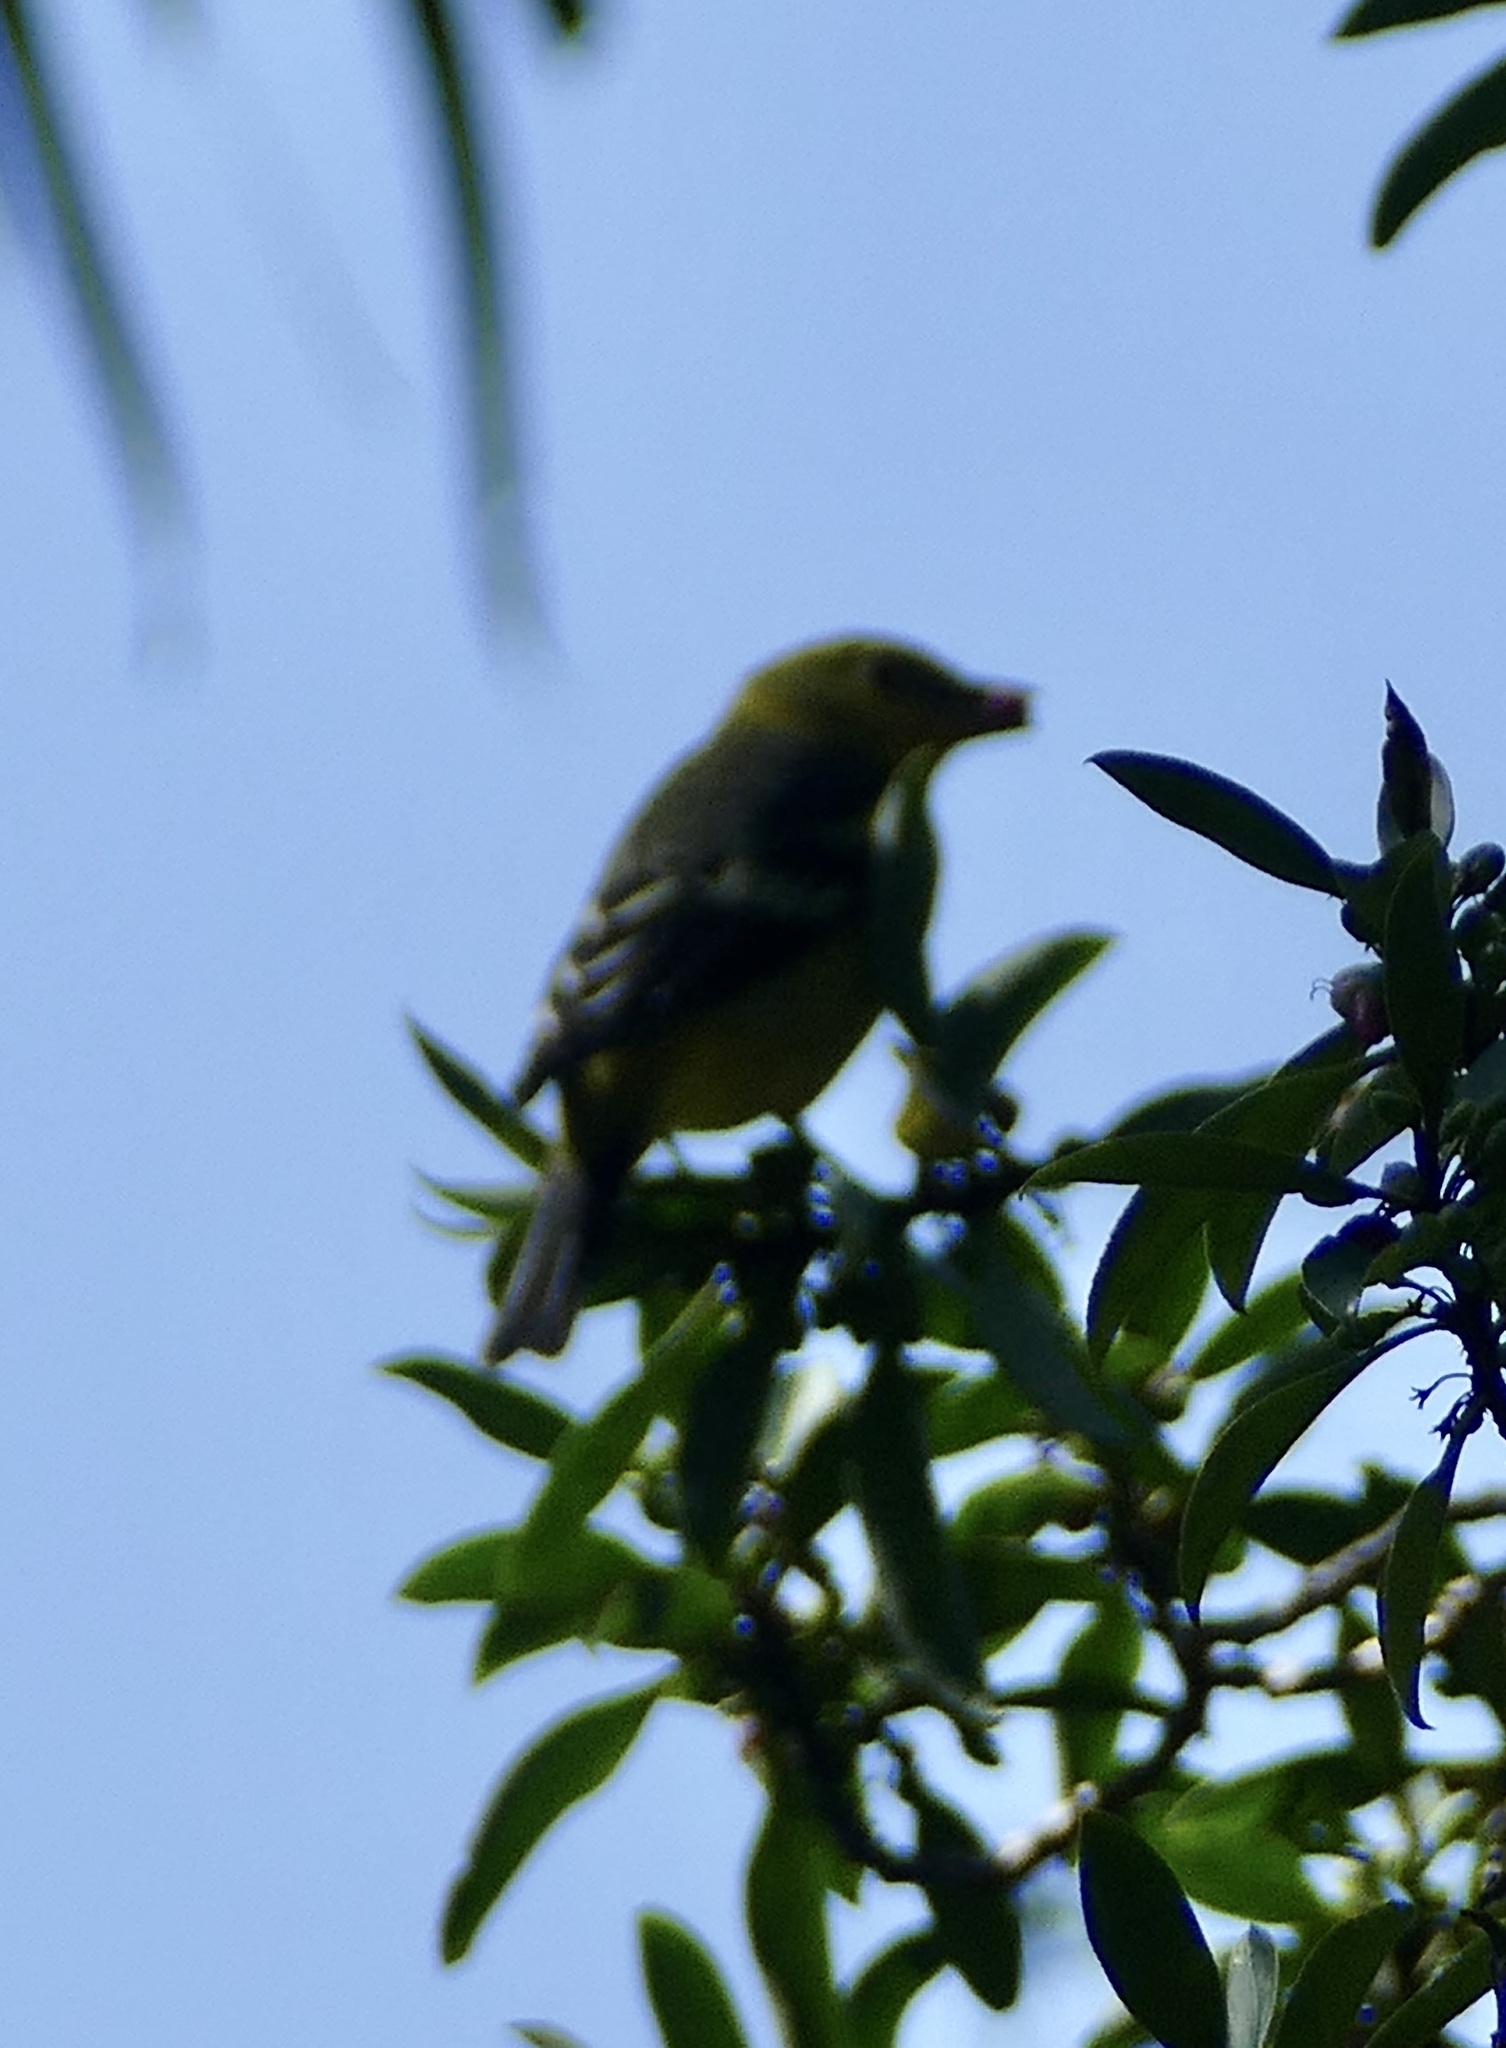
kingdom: Animalia
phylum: Chordata
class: Aves
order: Passeriformes
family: Cardinalidae
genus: Piranga
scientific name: Piranga ludoviciana
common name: Western tanager
